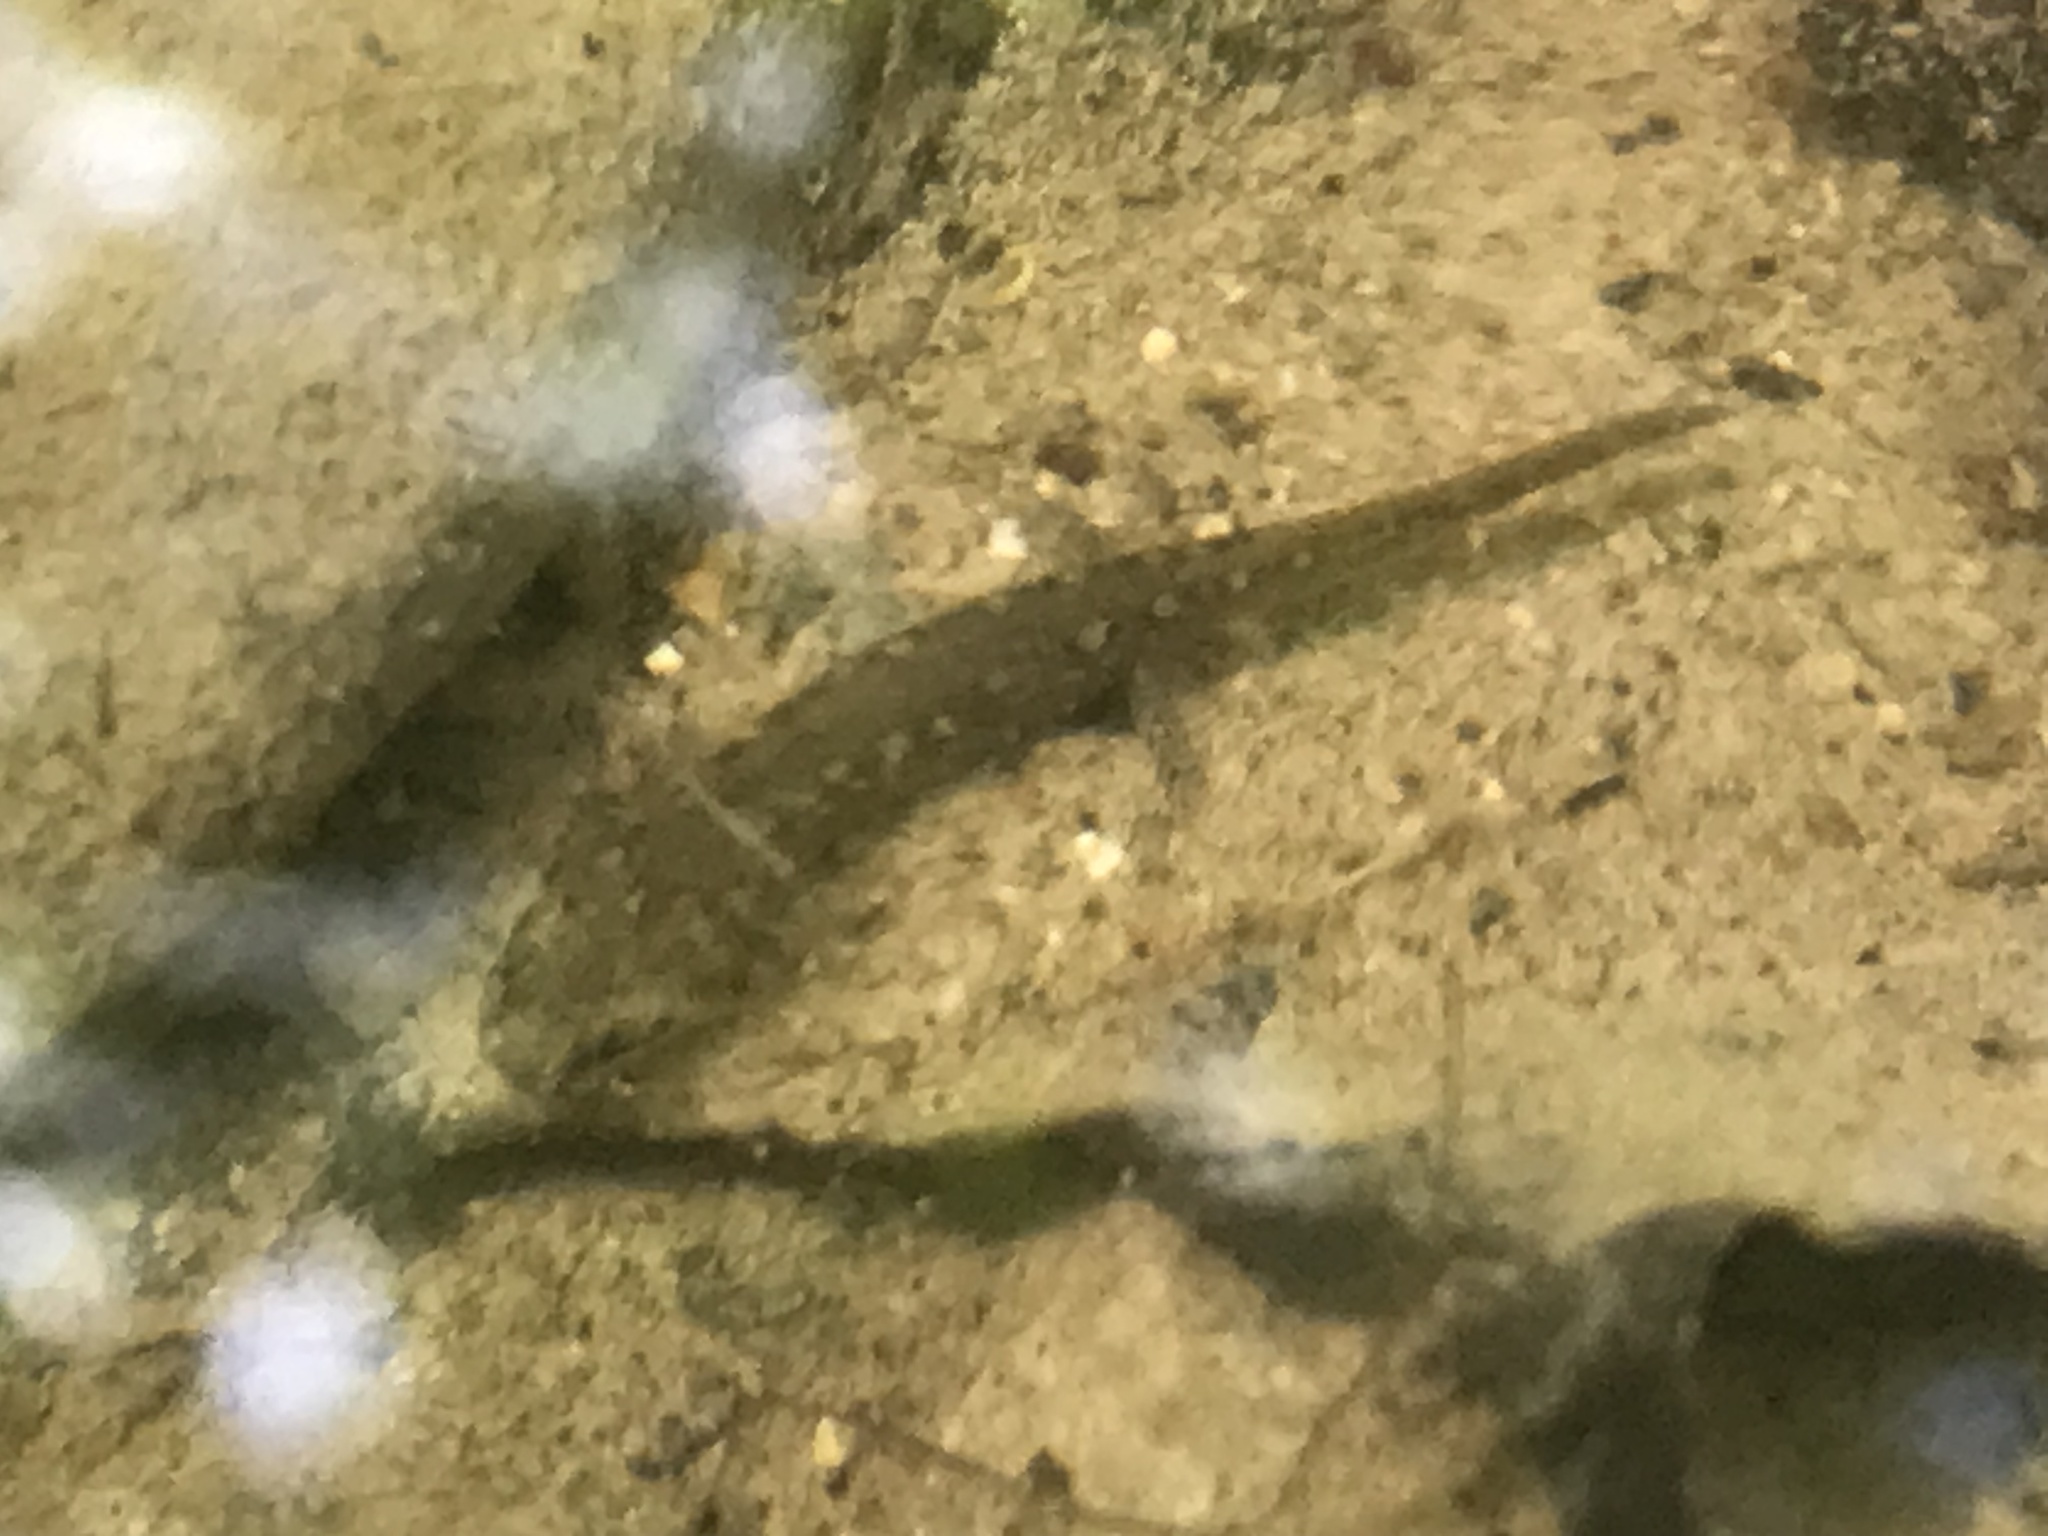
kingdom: Animalia
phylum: Chordata
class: Amphibia
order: Caudata
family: Plethodontidae
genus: Eurycea
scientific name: Eurycea cirrigera
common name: Southern two-lined salamander
